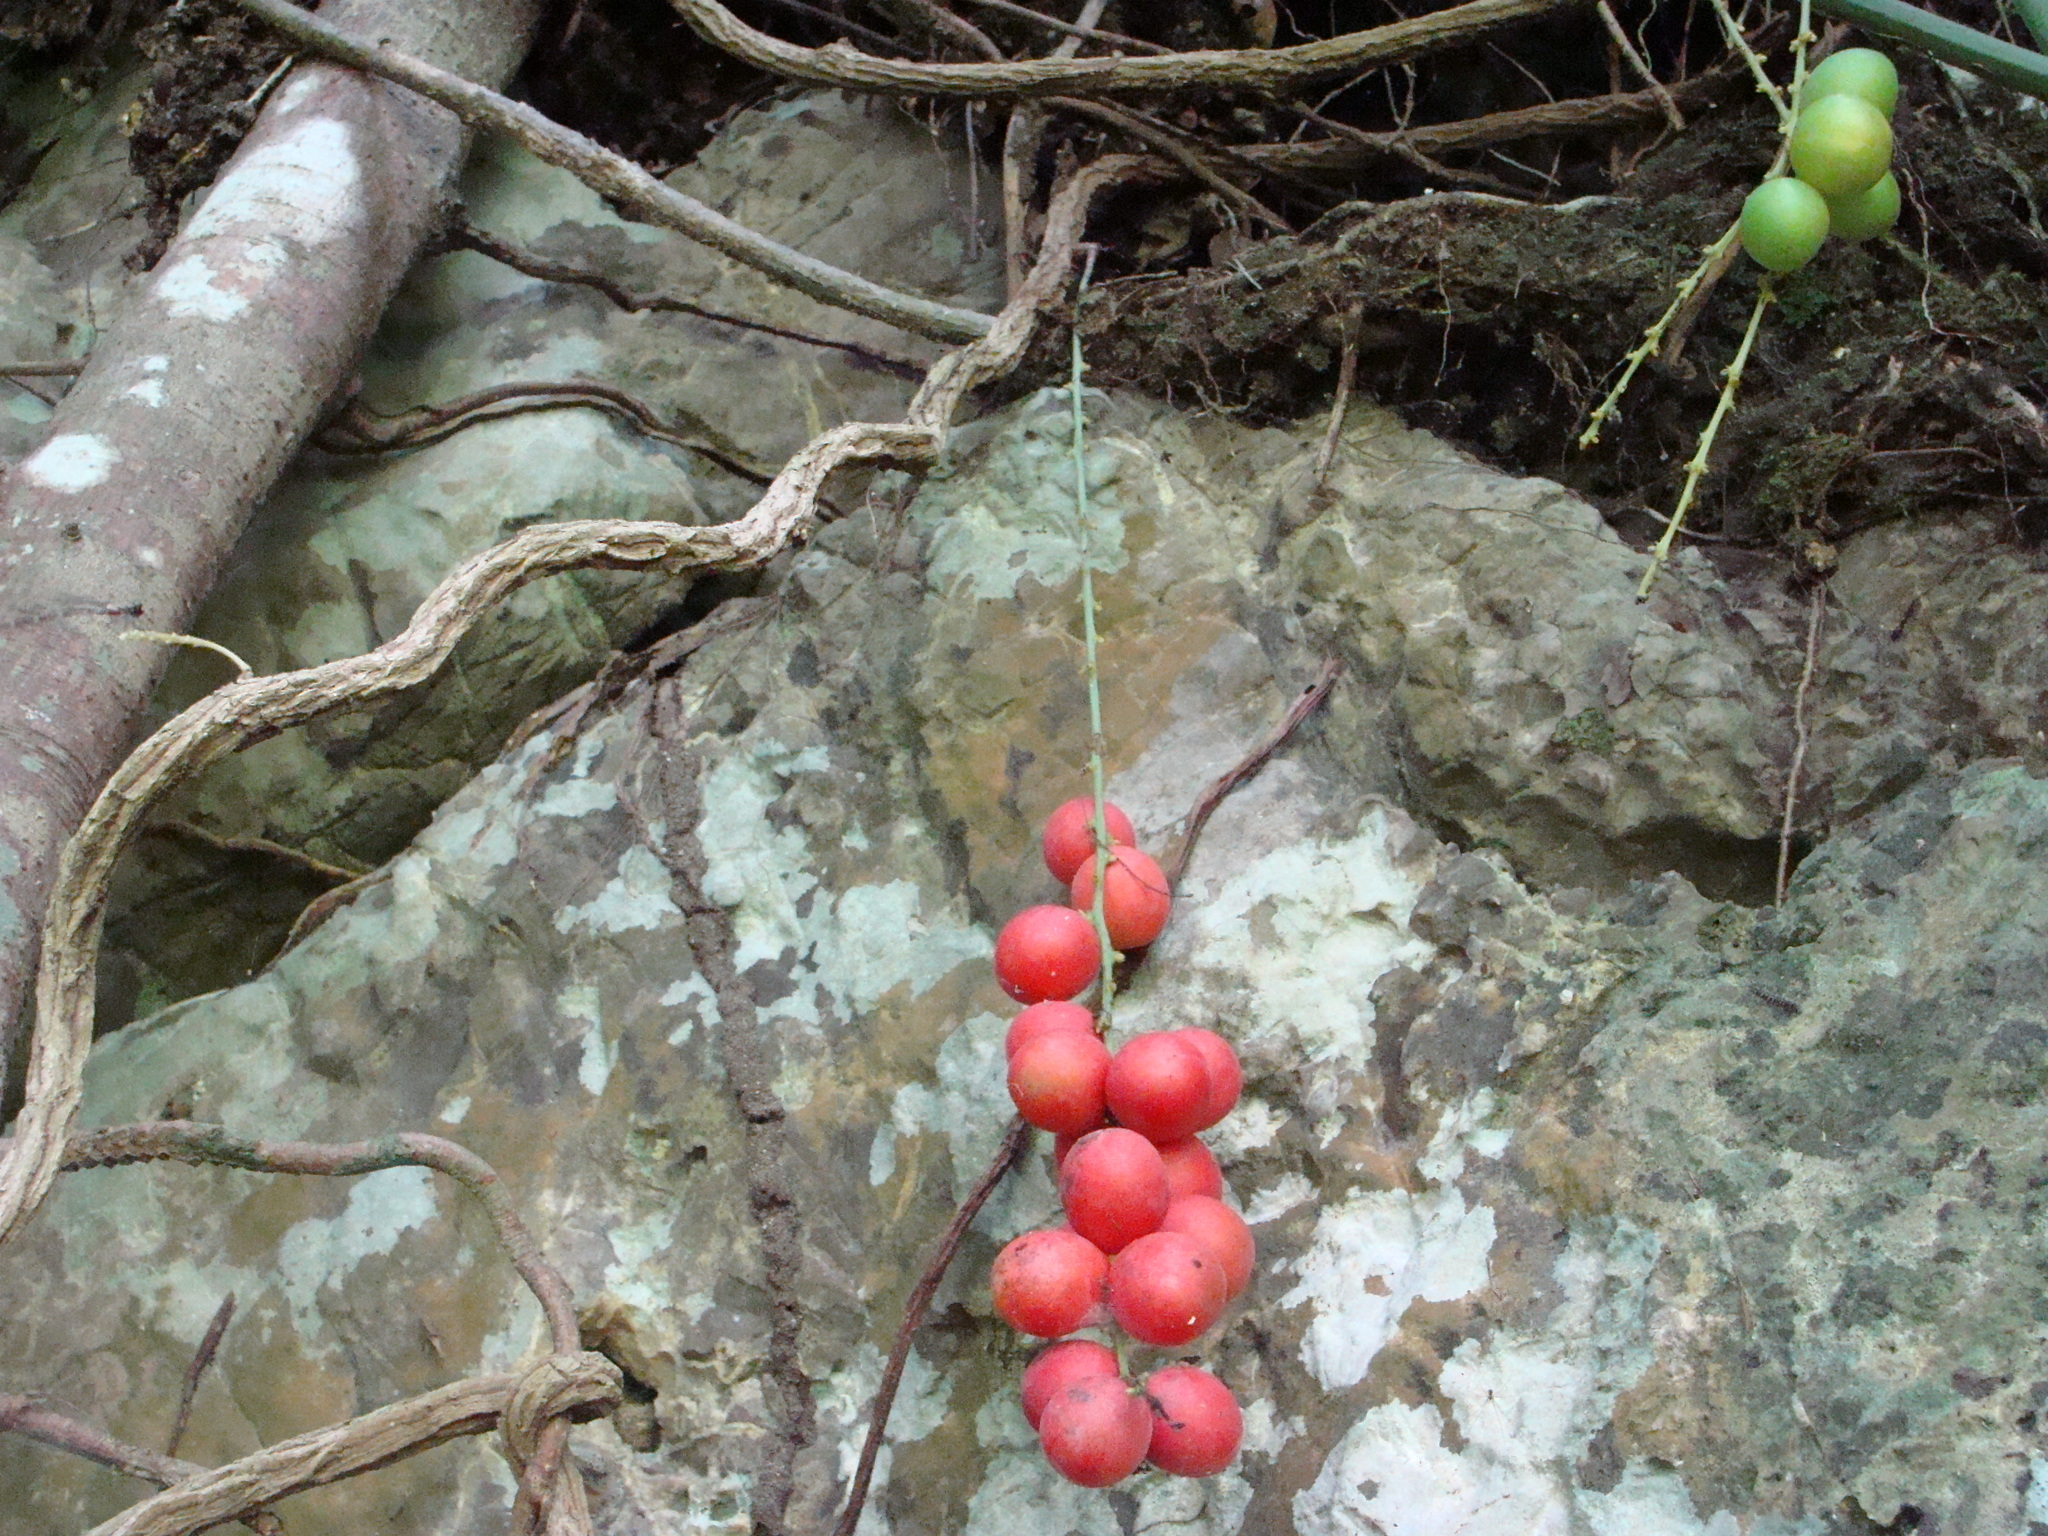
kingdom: Plantae
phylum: Tracheophyta
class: Magnoliopsida
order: Ranunculales
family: Menispermaceae
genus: Disciphania
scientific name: Disciphania calocarpa
